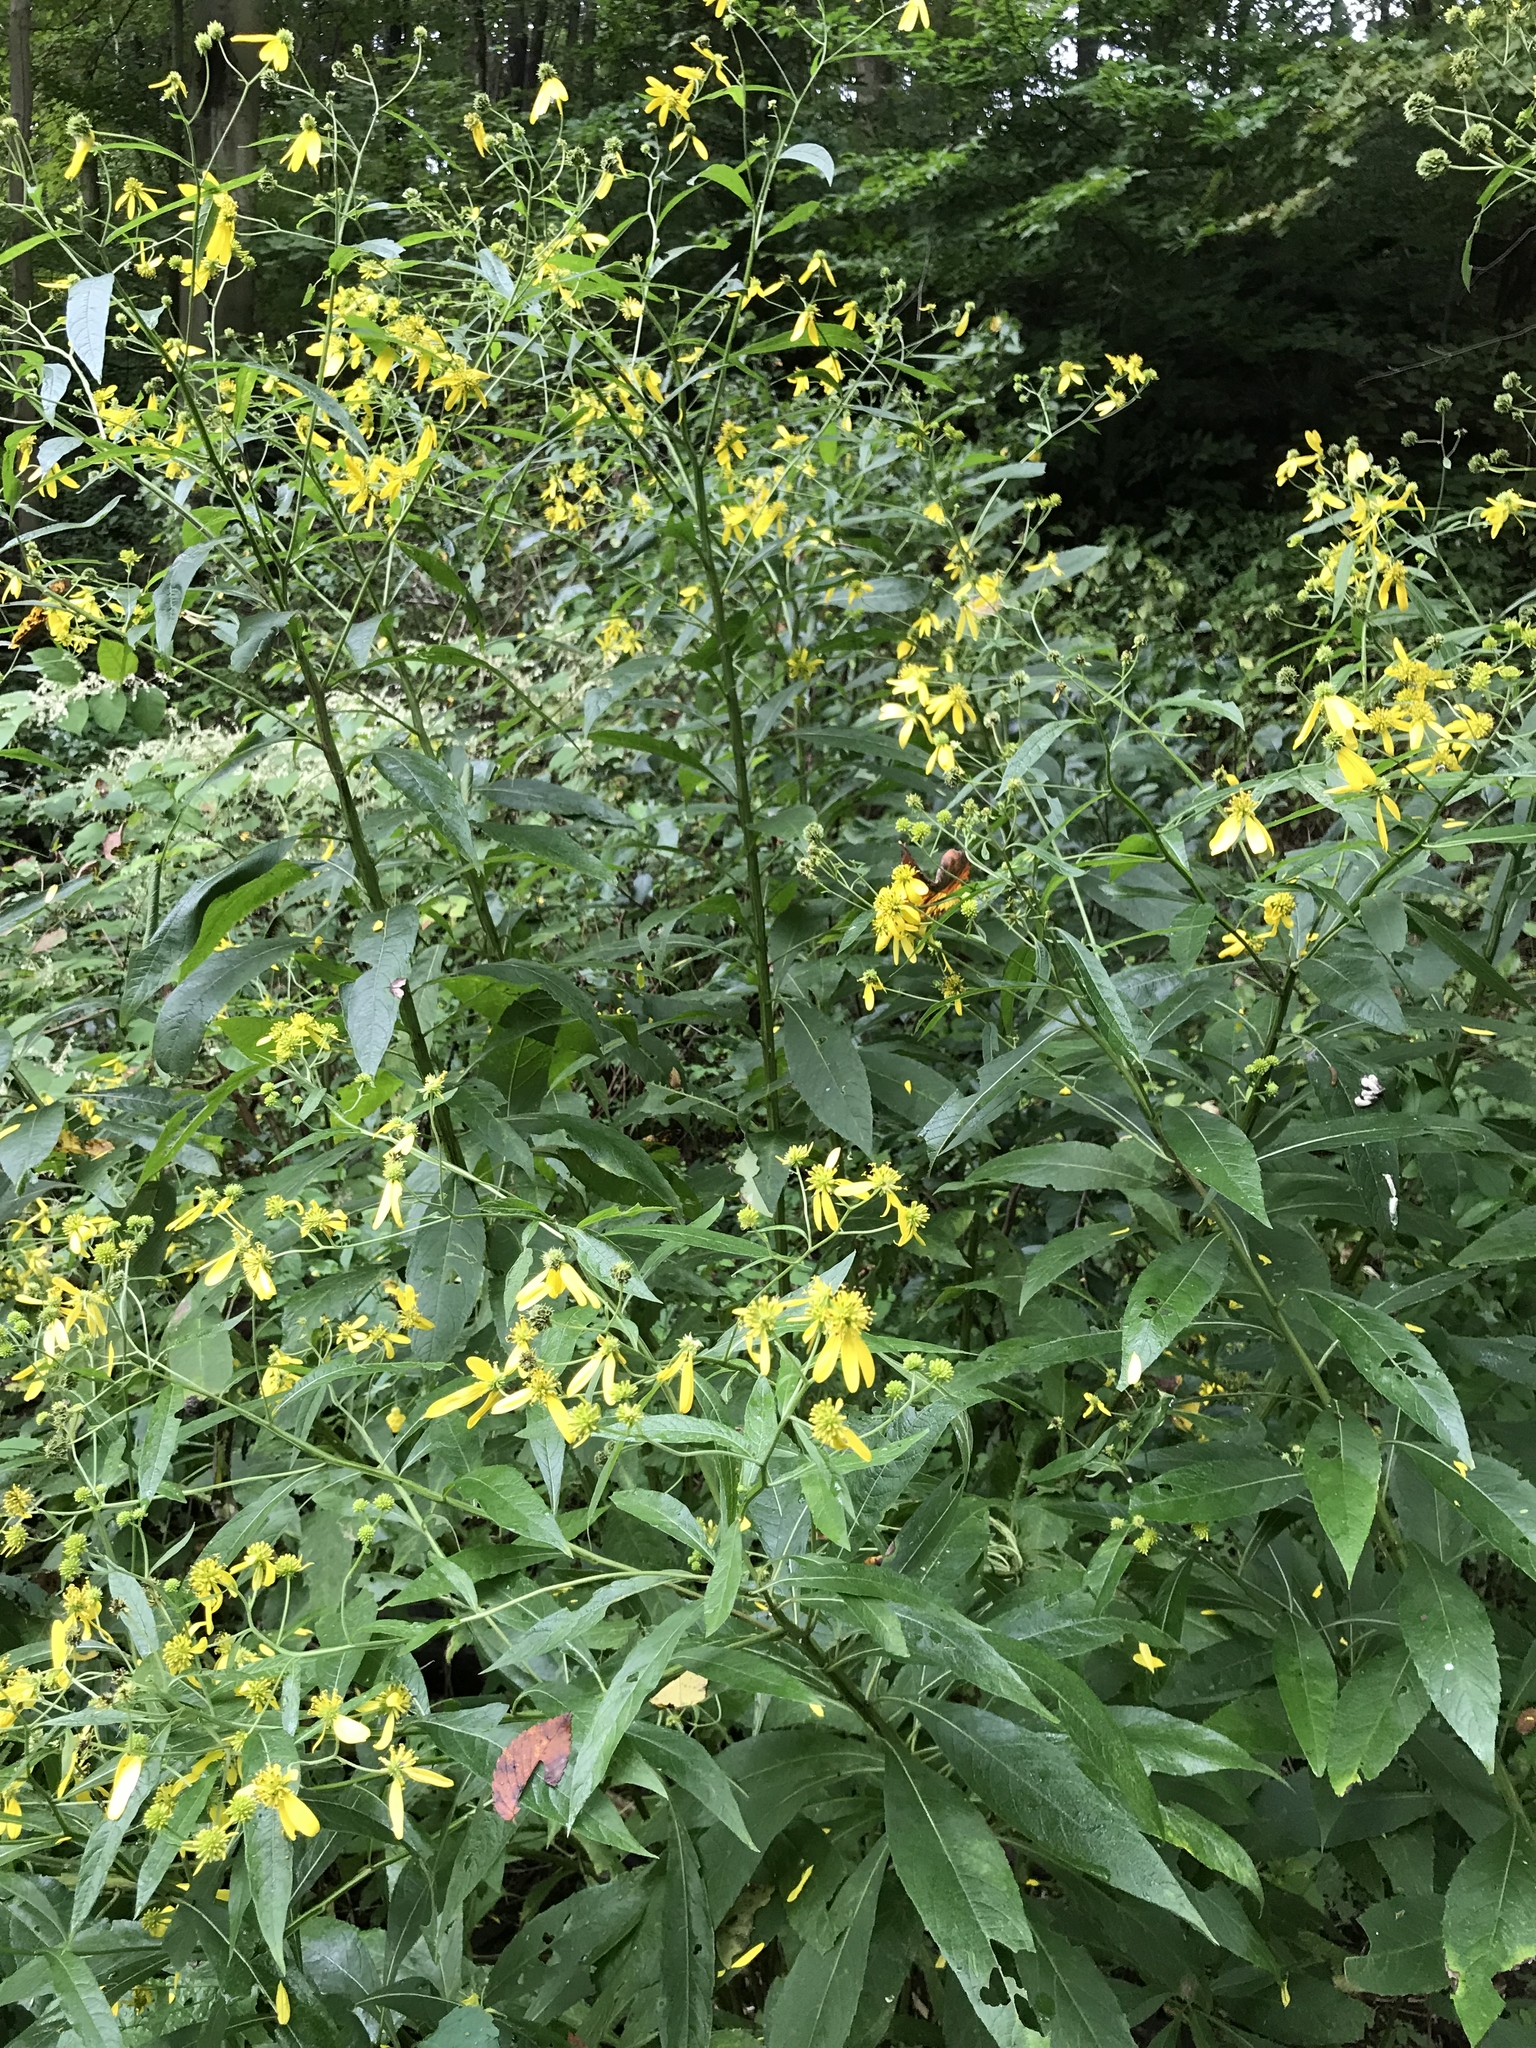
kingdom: Plantae
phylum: Tracheophyta
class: Magnoliopsida
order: Asterales
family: Asteraceae
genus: Verbesina
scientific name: Verbesina alternifolia
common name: Wingstem
